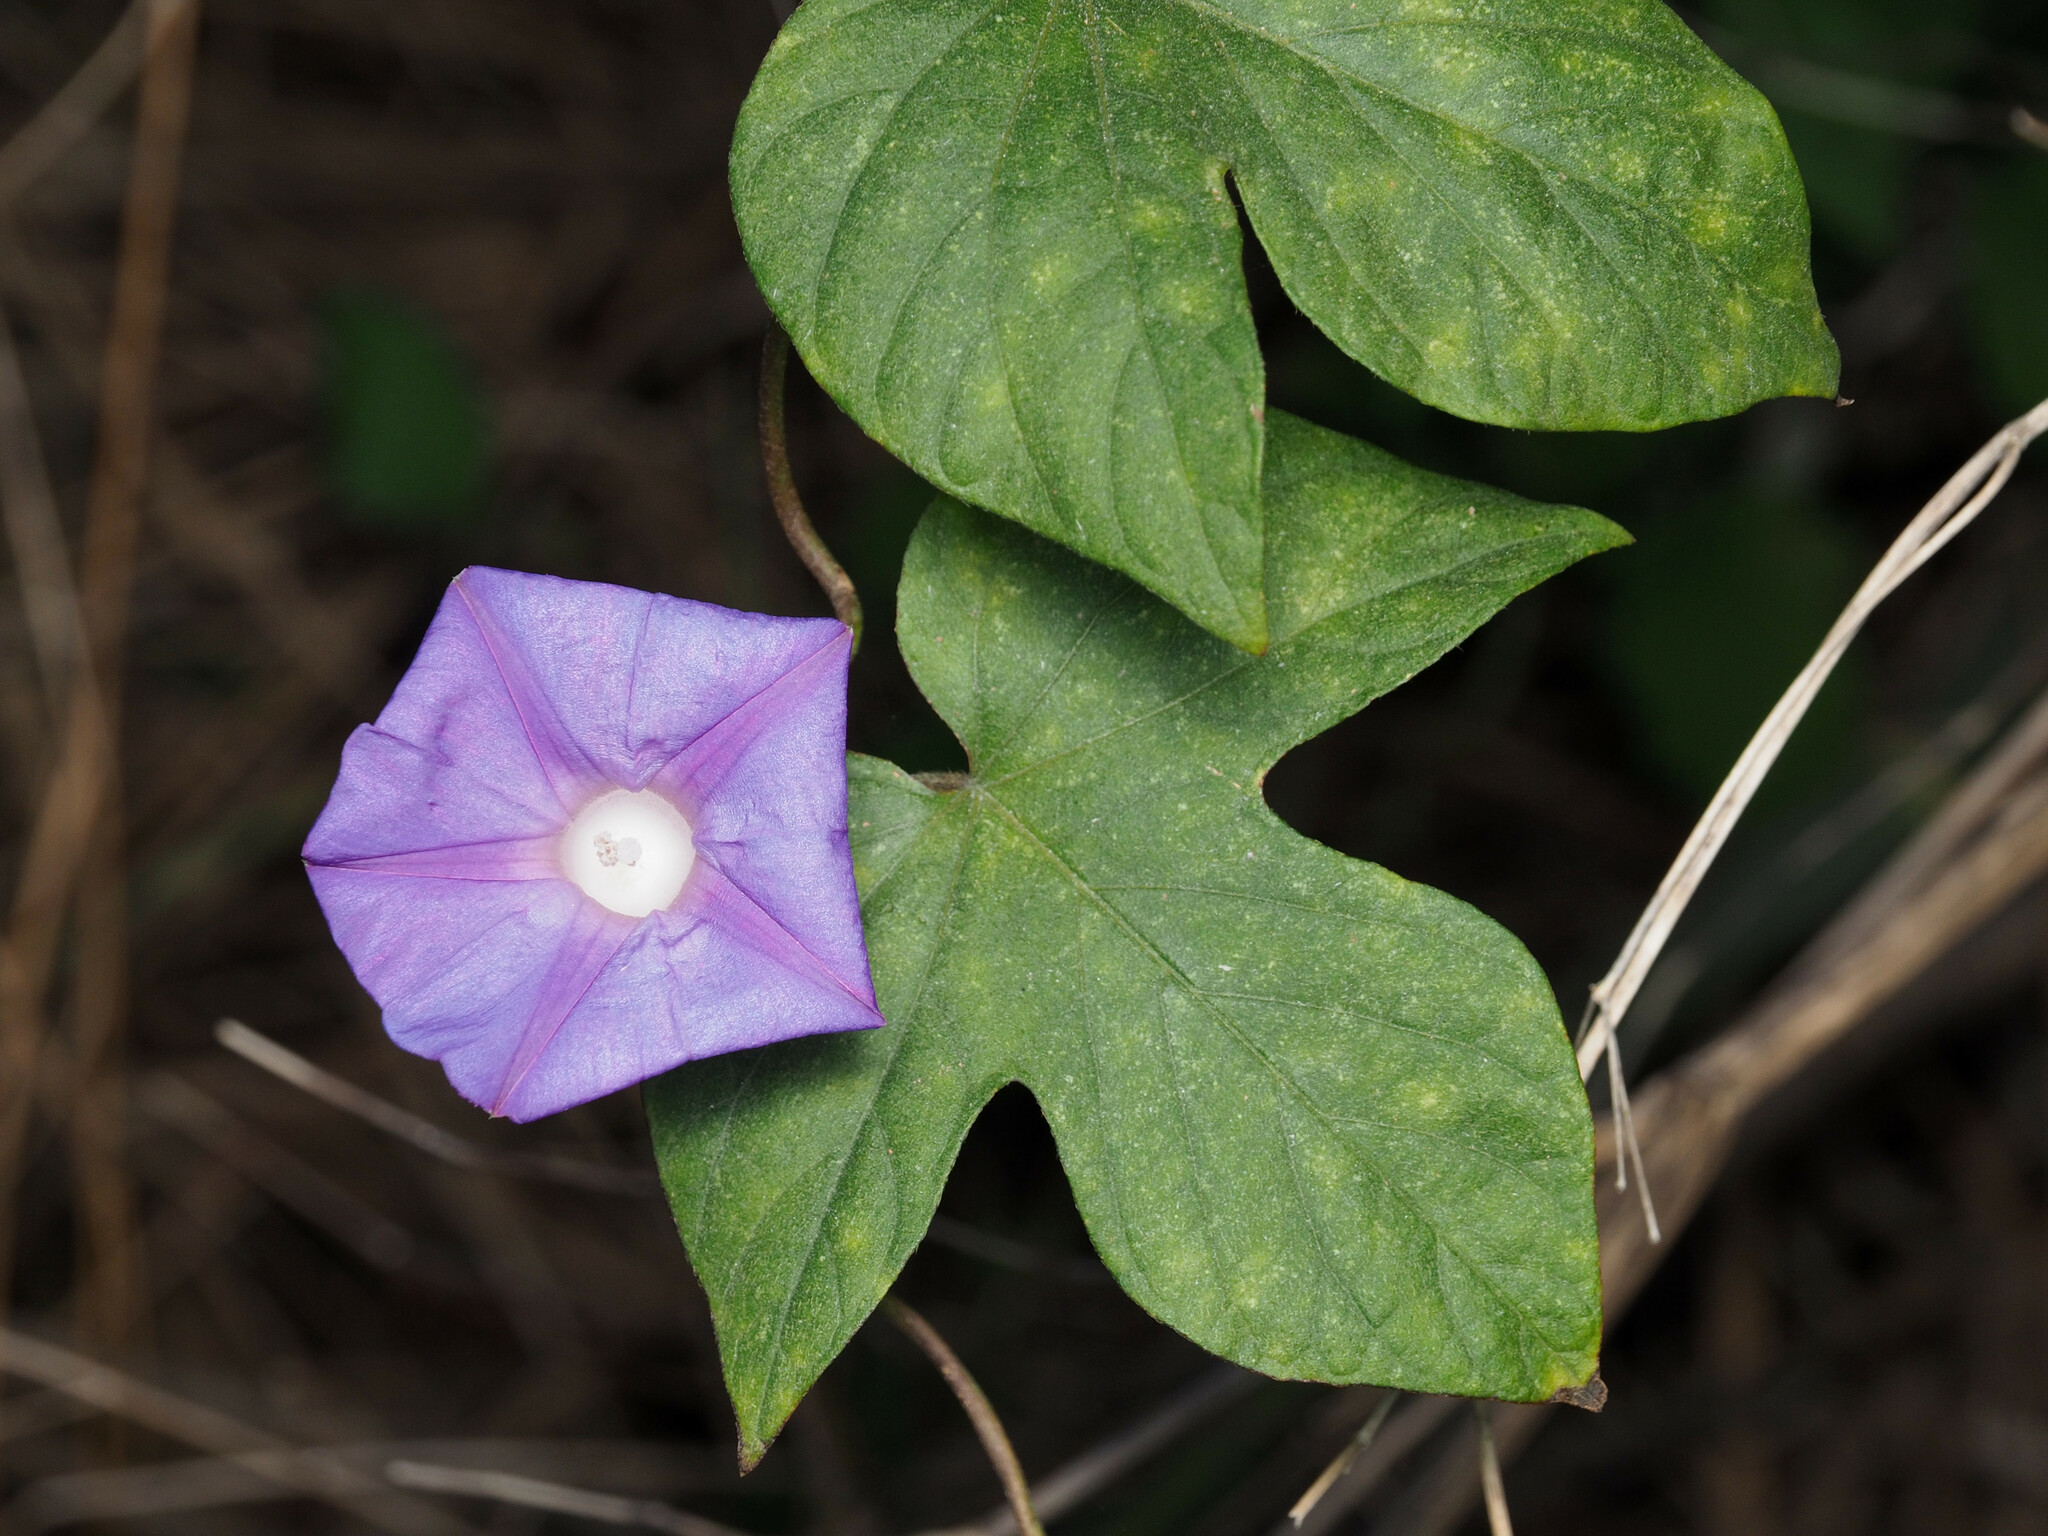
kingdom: Plantae
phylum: Tracheophyta
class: Magnoliopsida
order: Solanales
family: Convolvulaceae
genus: Ipomoea
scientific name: Ipomoea indica
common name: Blue dawnflower
